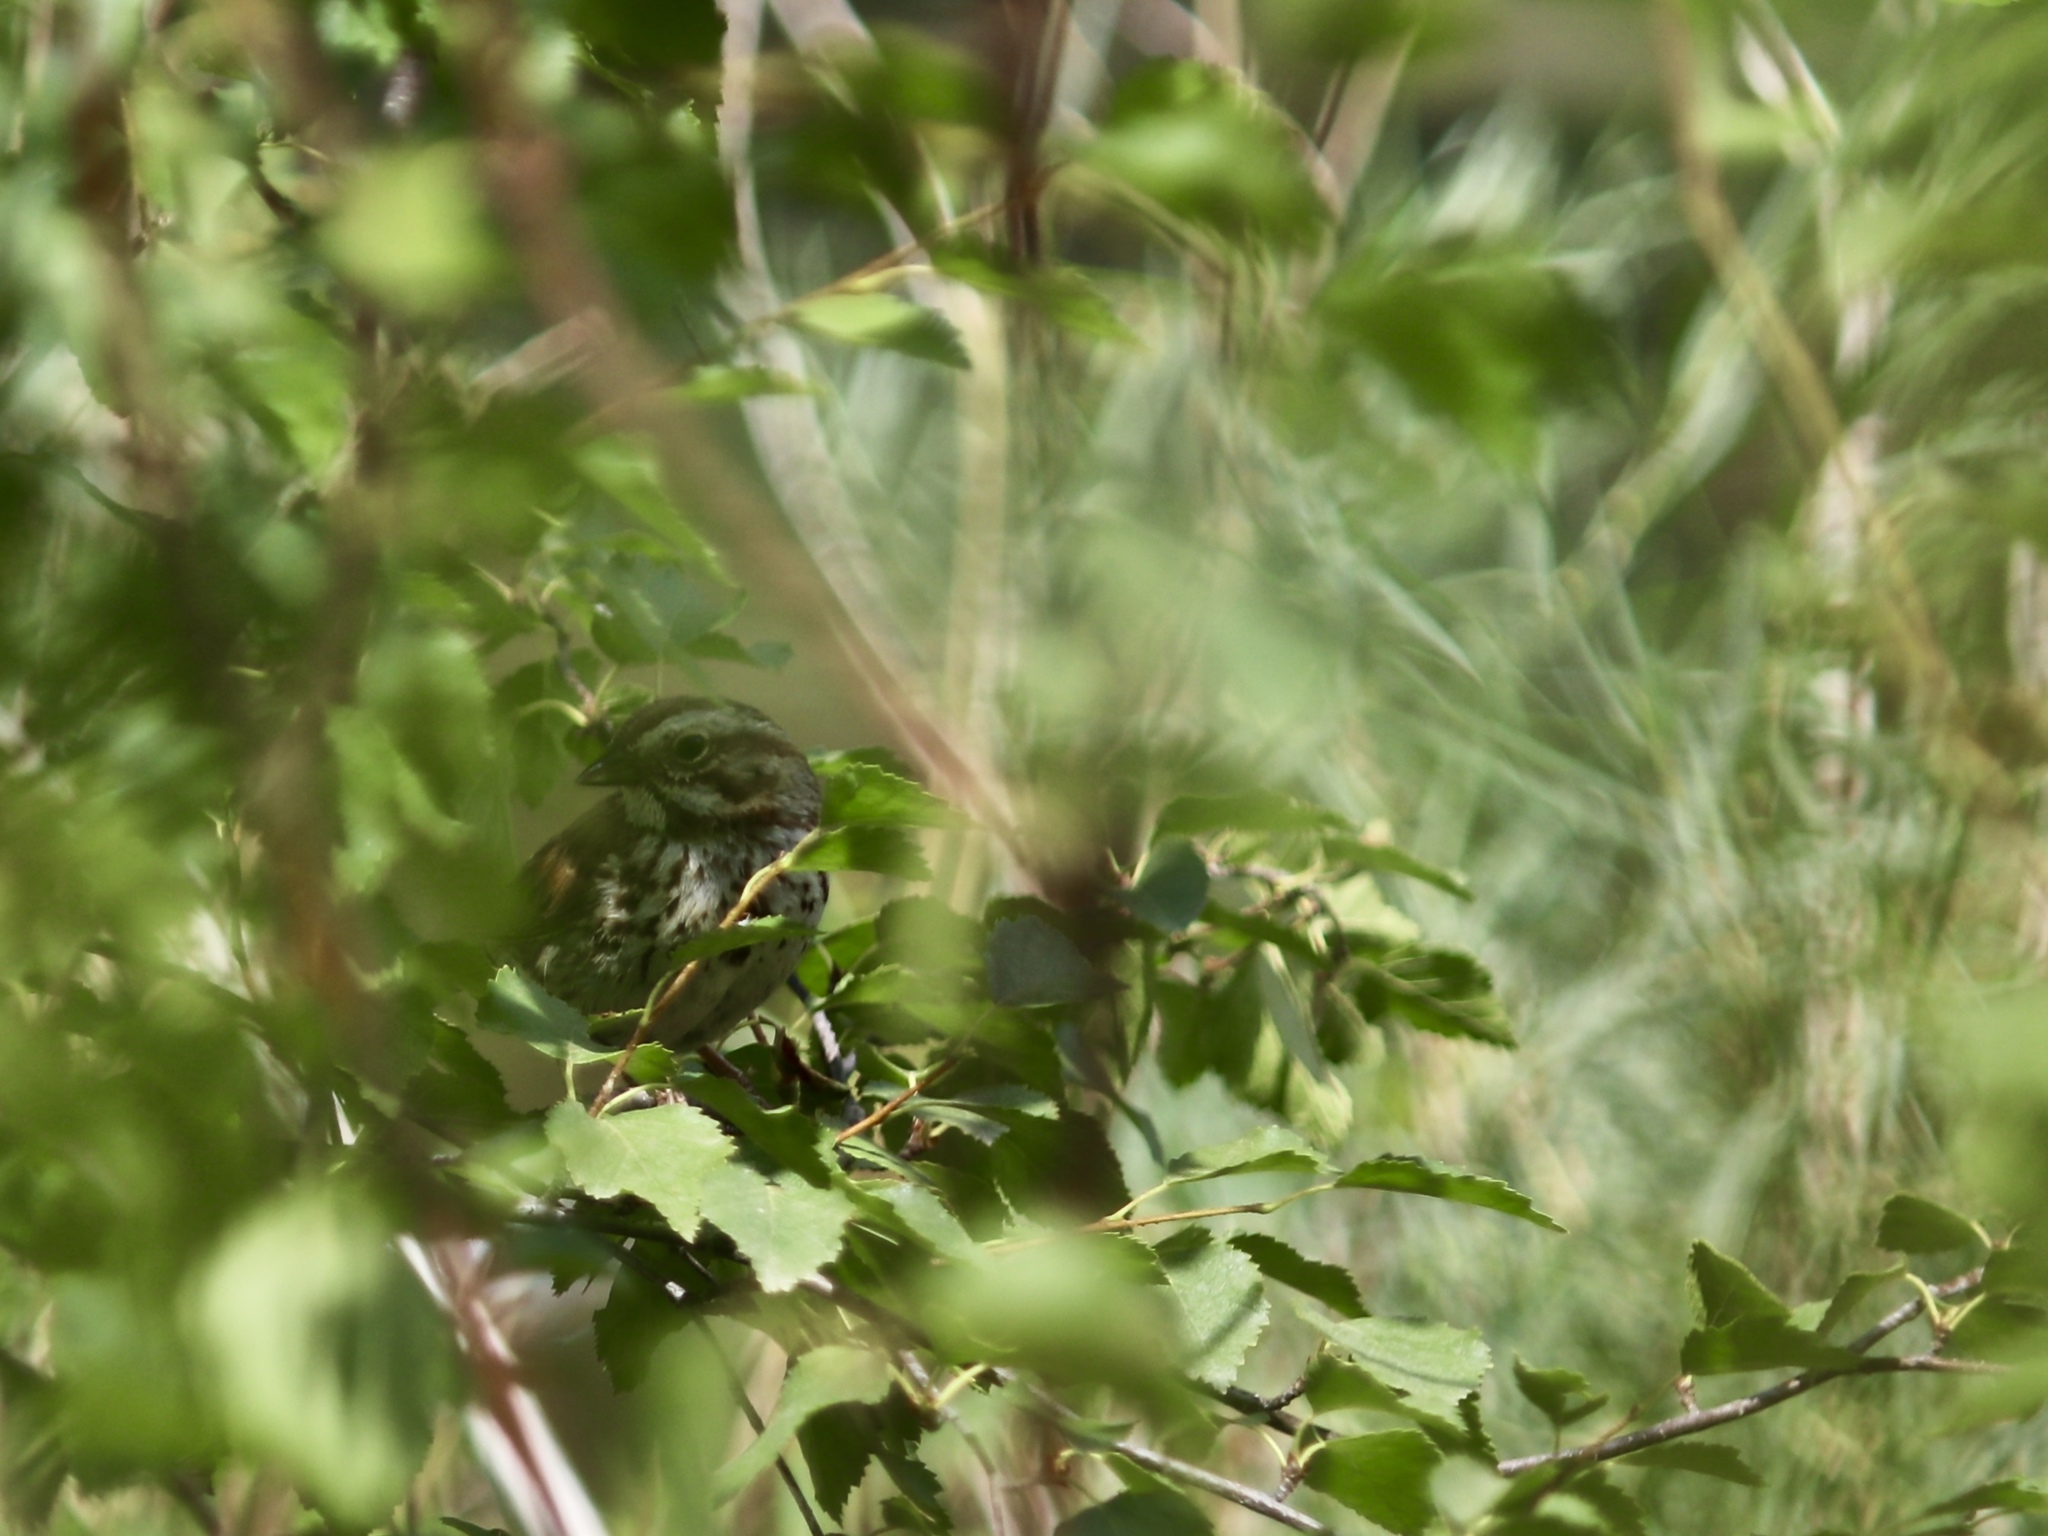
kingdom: Animalia
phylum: Chordata
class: Aves
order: Passeriformes
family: Passerellidae
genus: Melospiza
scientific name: Melospiza melodia
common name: Song sparrow
